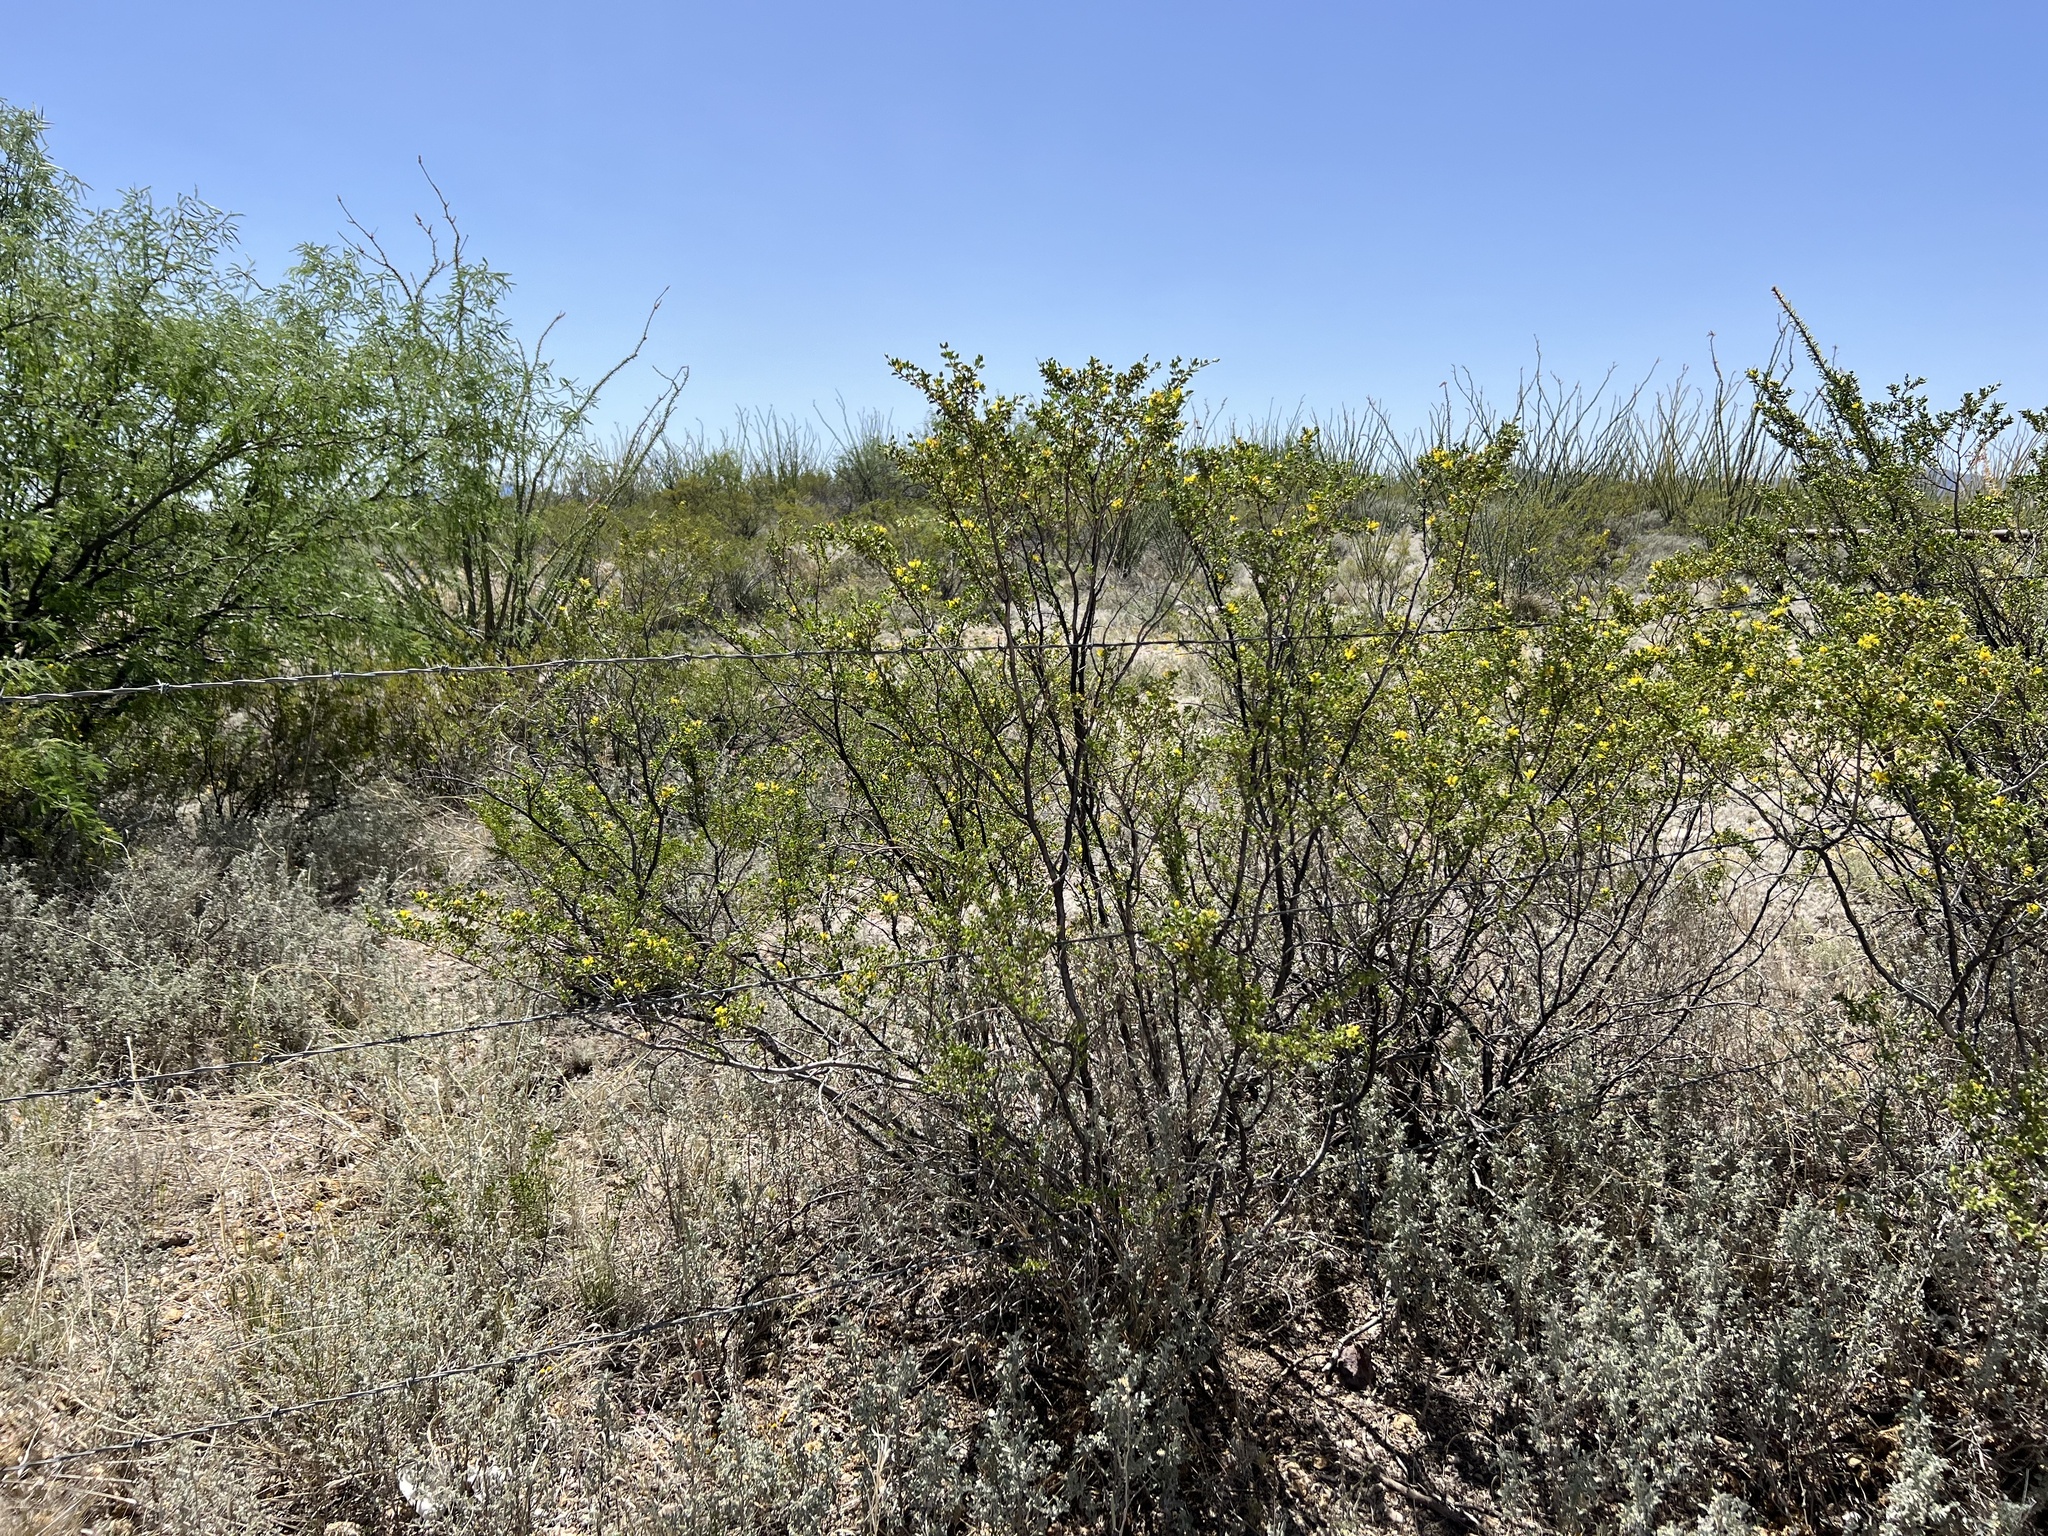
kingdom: Plantae
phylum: Tracheophyta
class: Magnoliopsida
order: Zygophyllales
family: Zygophyllaceae
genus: Larrea
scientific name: Larrea tridentata
